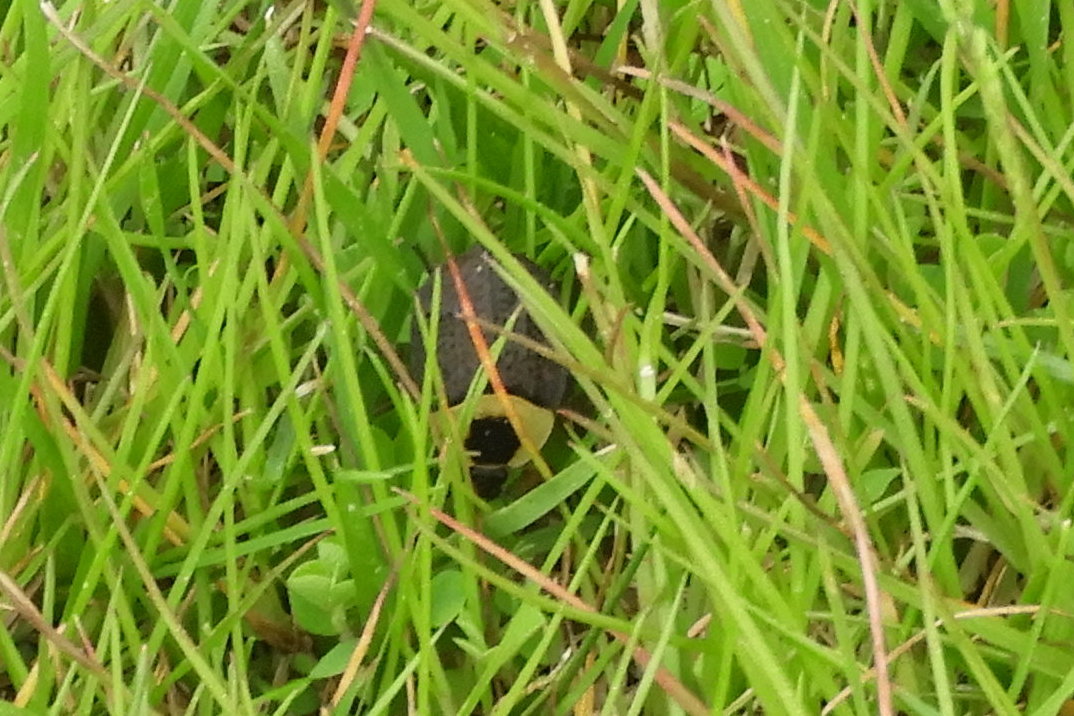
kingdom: Animalia
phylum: Arthropoda
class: Insecta
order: Coleoptera
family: Staphylinidae
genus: Necrophila
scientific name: Necrophila americana
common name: American carrion beetle
